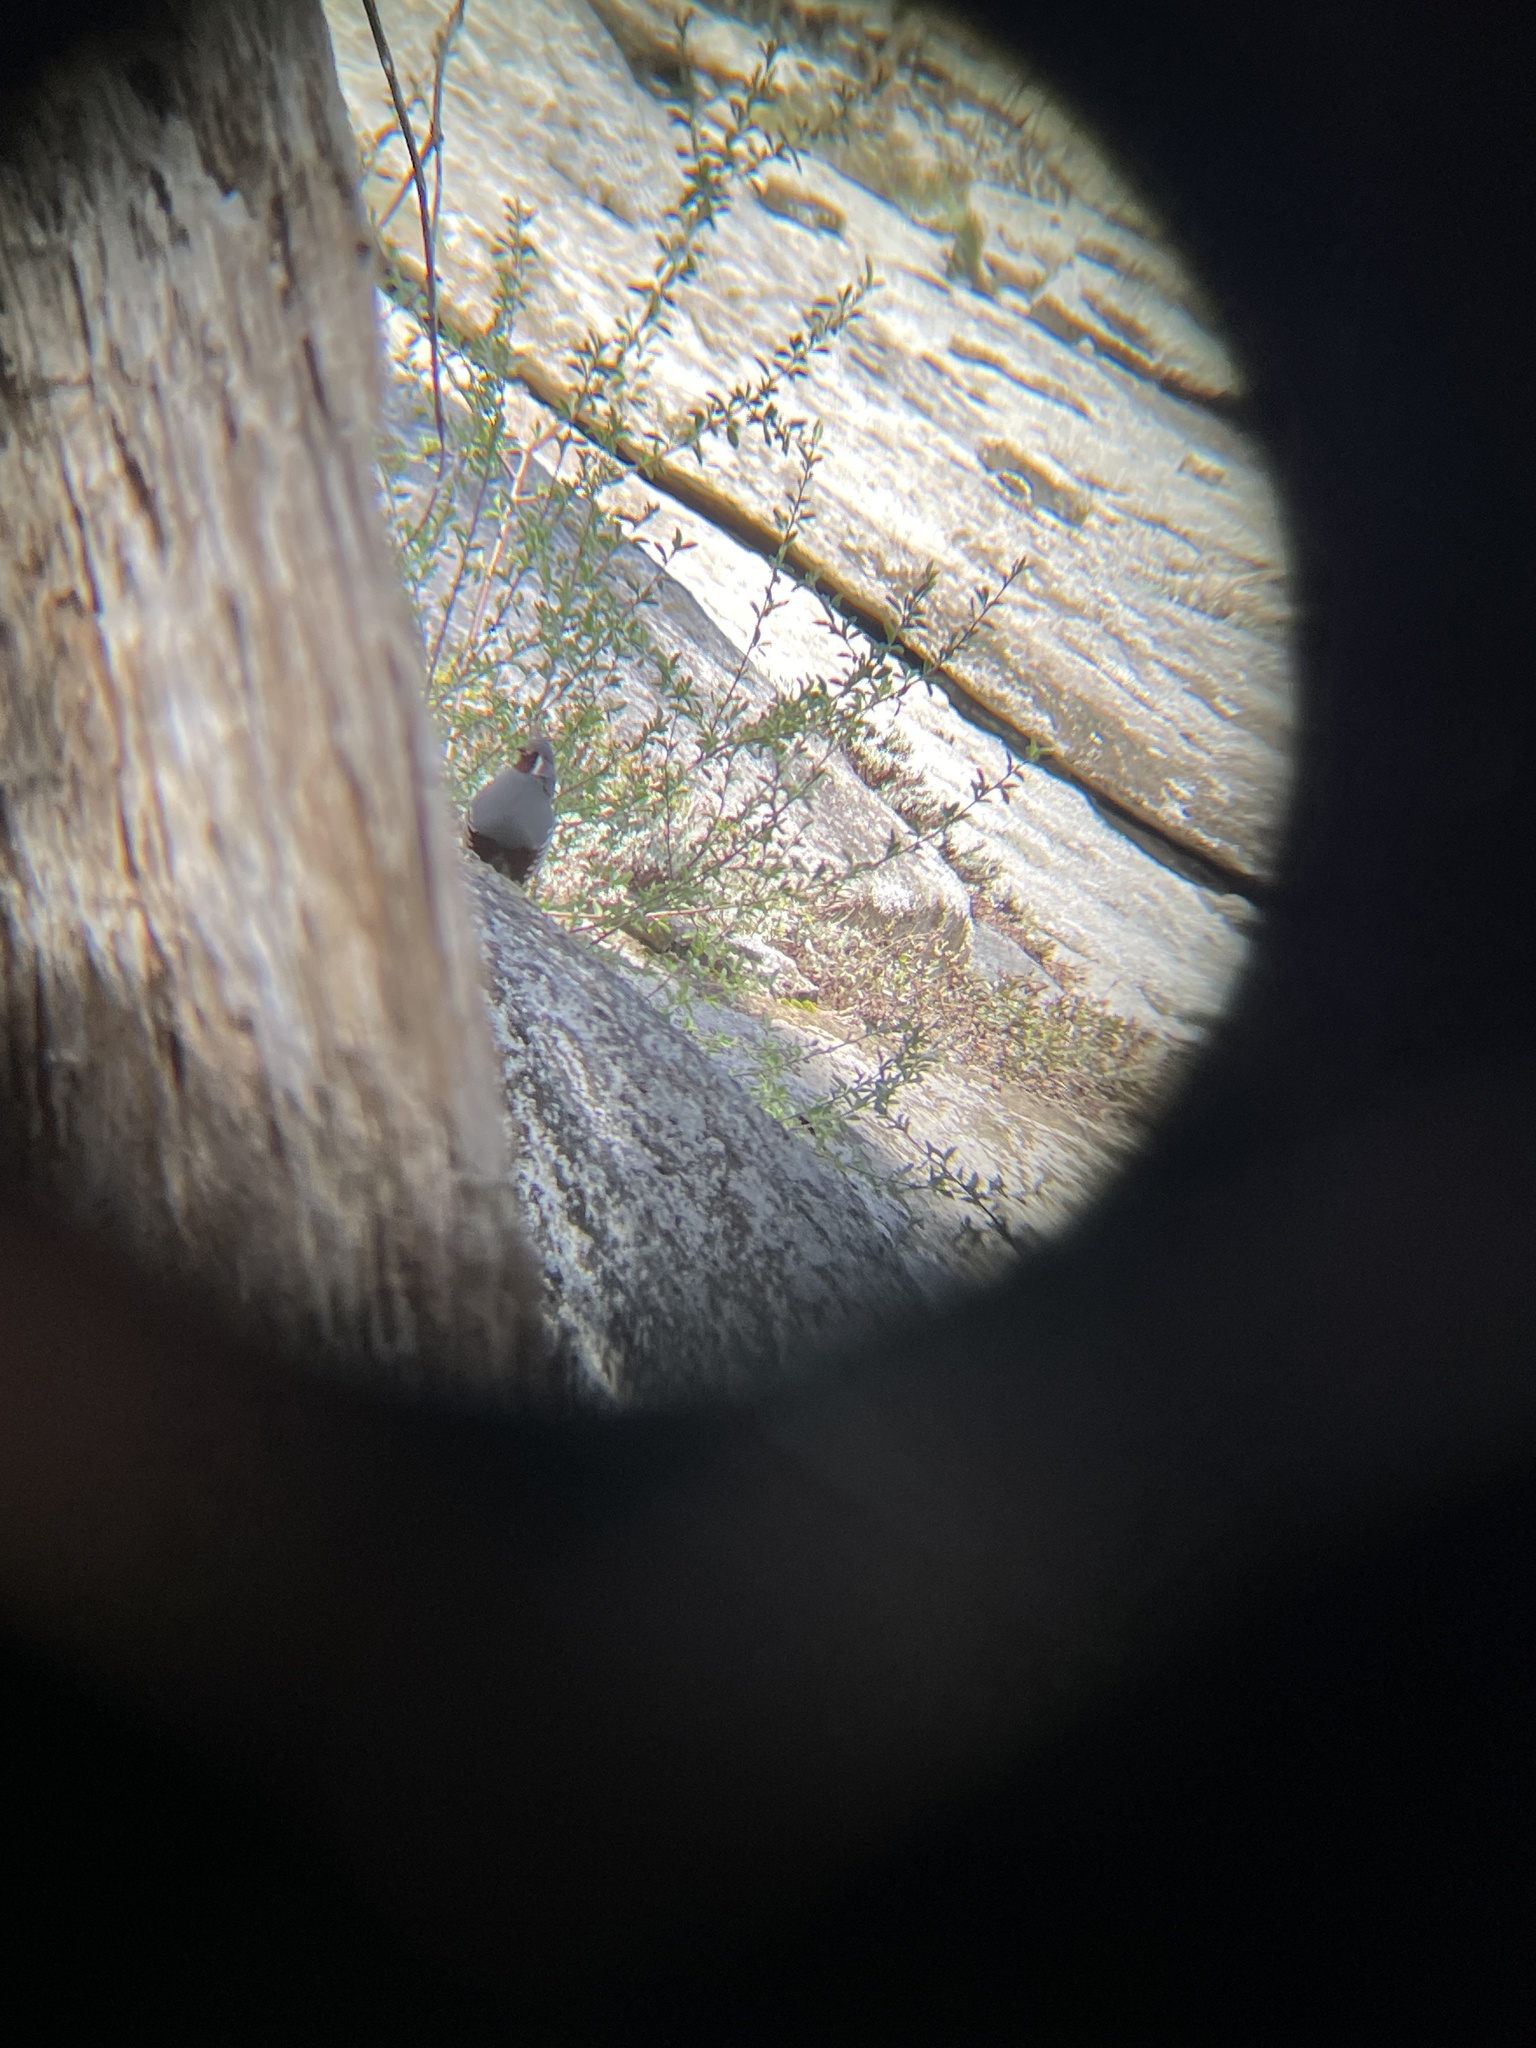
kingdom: Animalia
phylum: Chordata
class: Aves
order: Galliformes
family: Odontophoridae
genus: Oreortyx
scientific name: Oreortyx pictus
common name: Mountain quail
